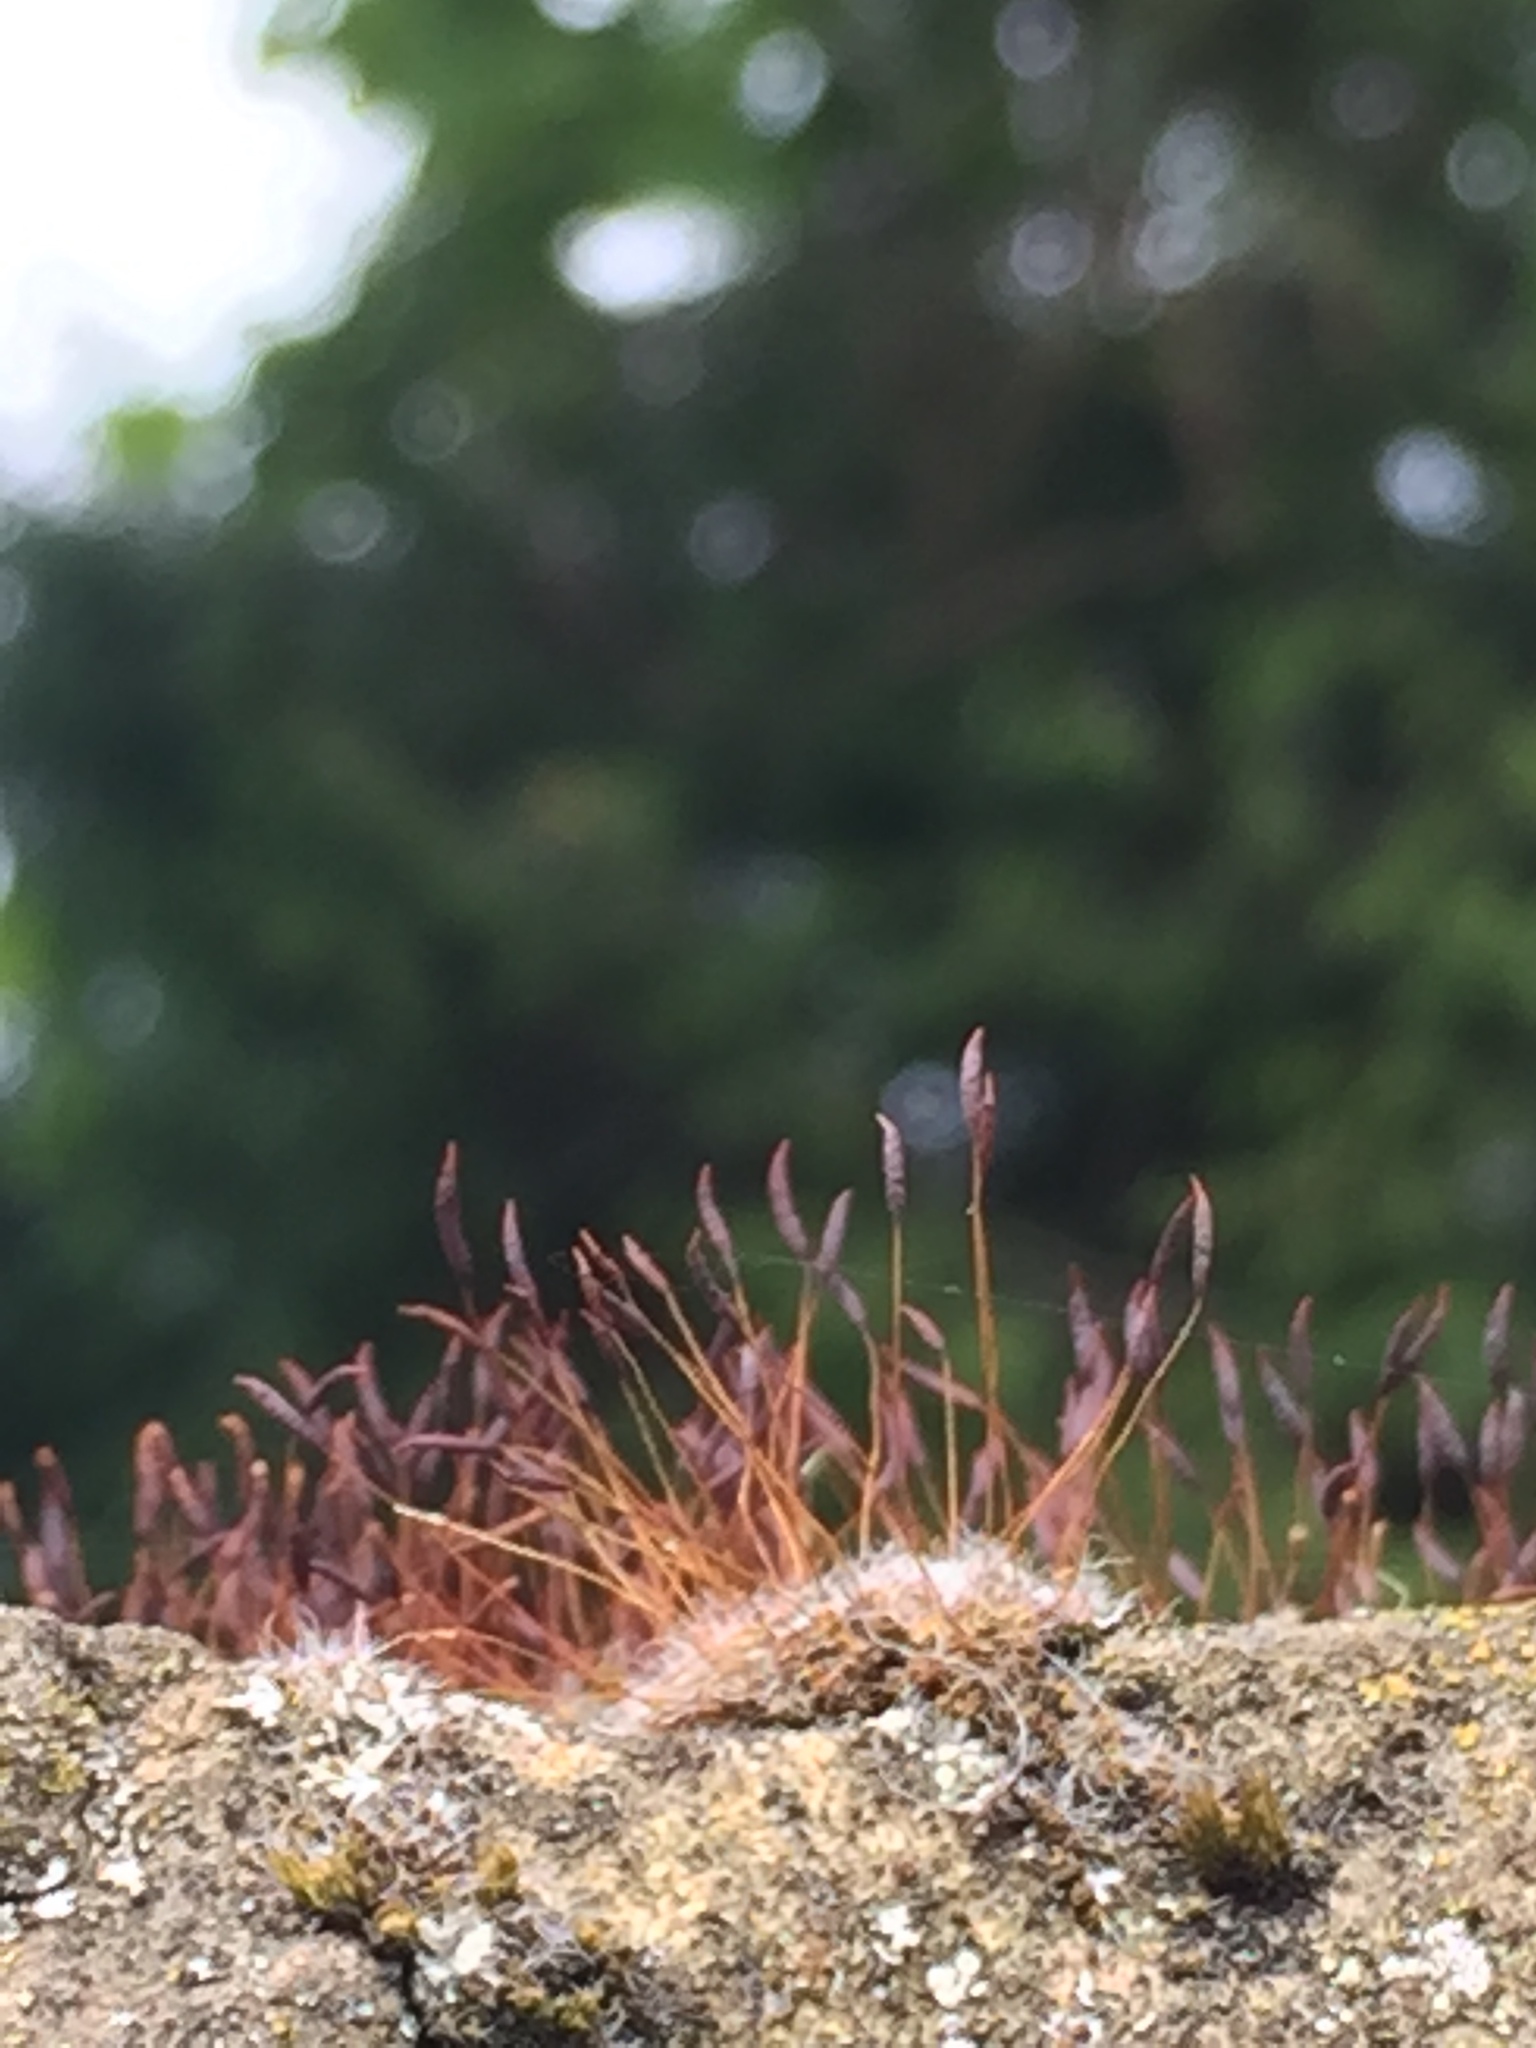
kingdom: Plantae
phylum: Bryophyta
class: Bryopsida
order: Pottiales
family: Pottiaceae
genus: Tortula
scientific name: Tortula muralis
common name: Wall screw-moss
